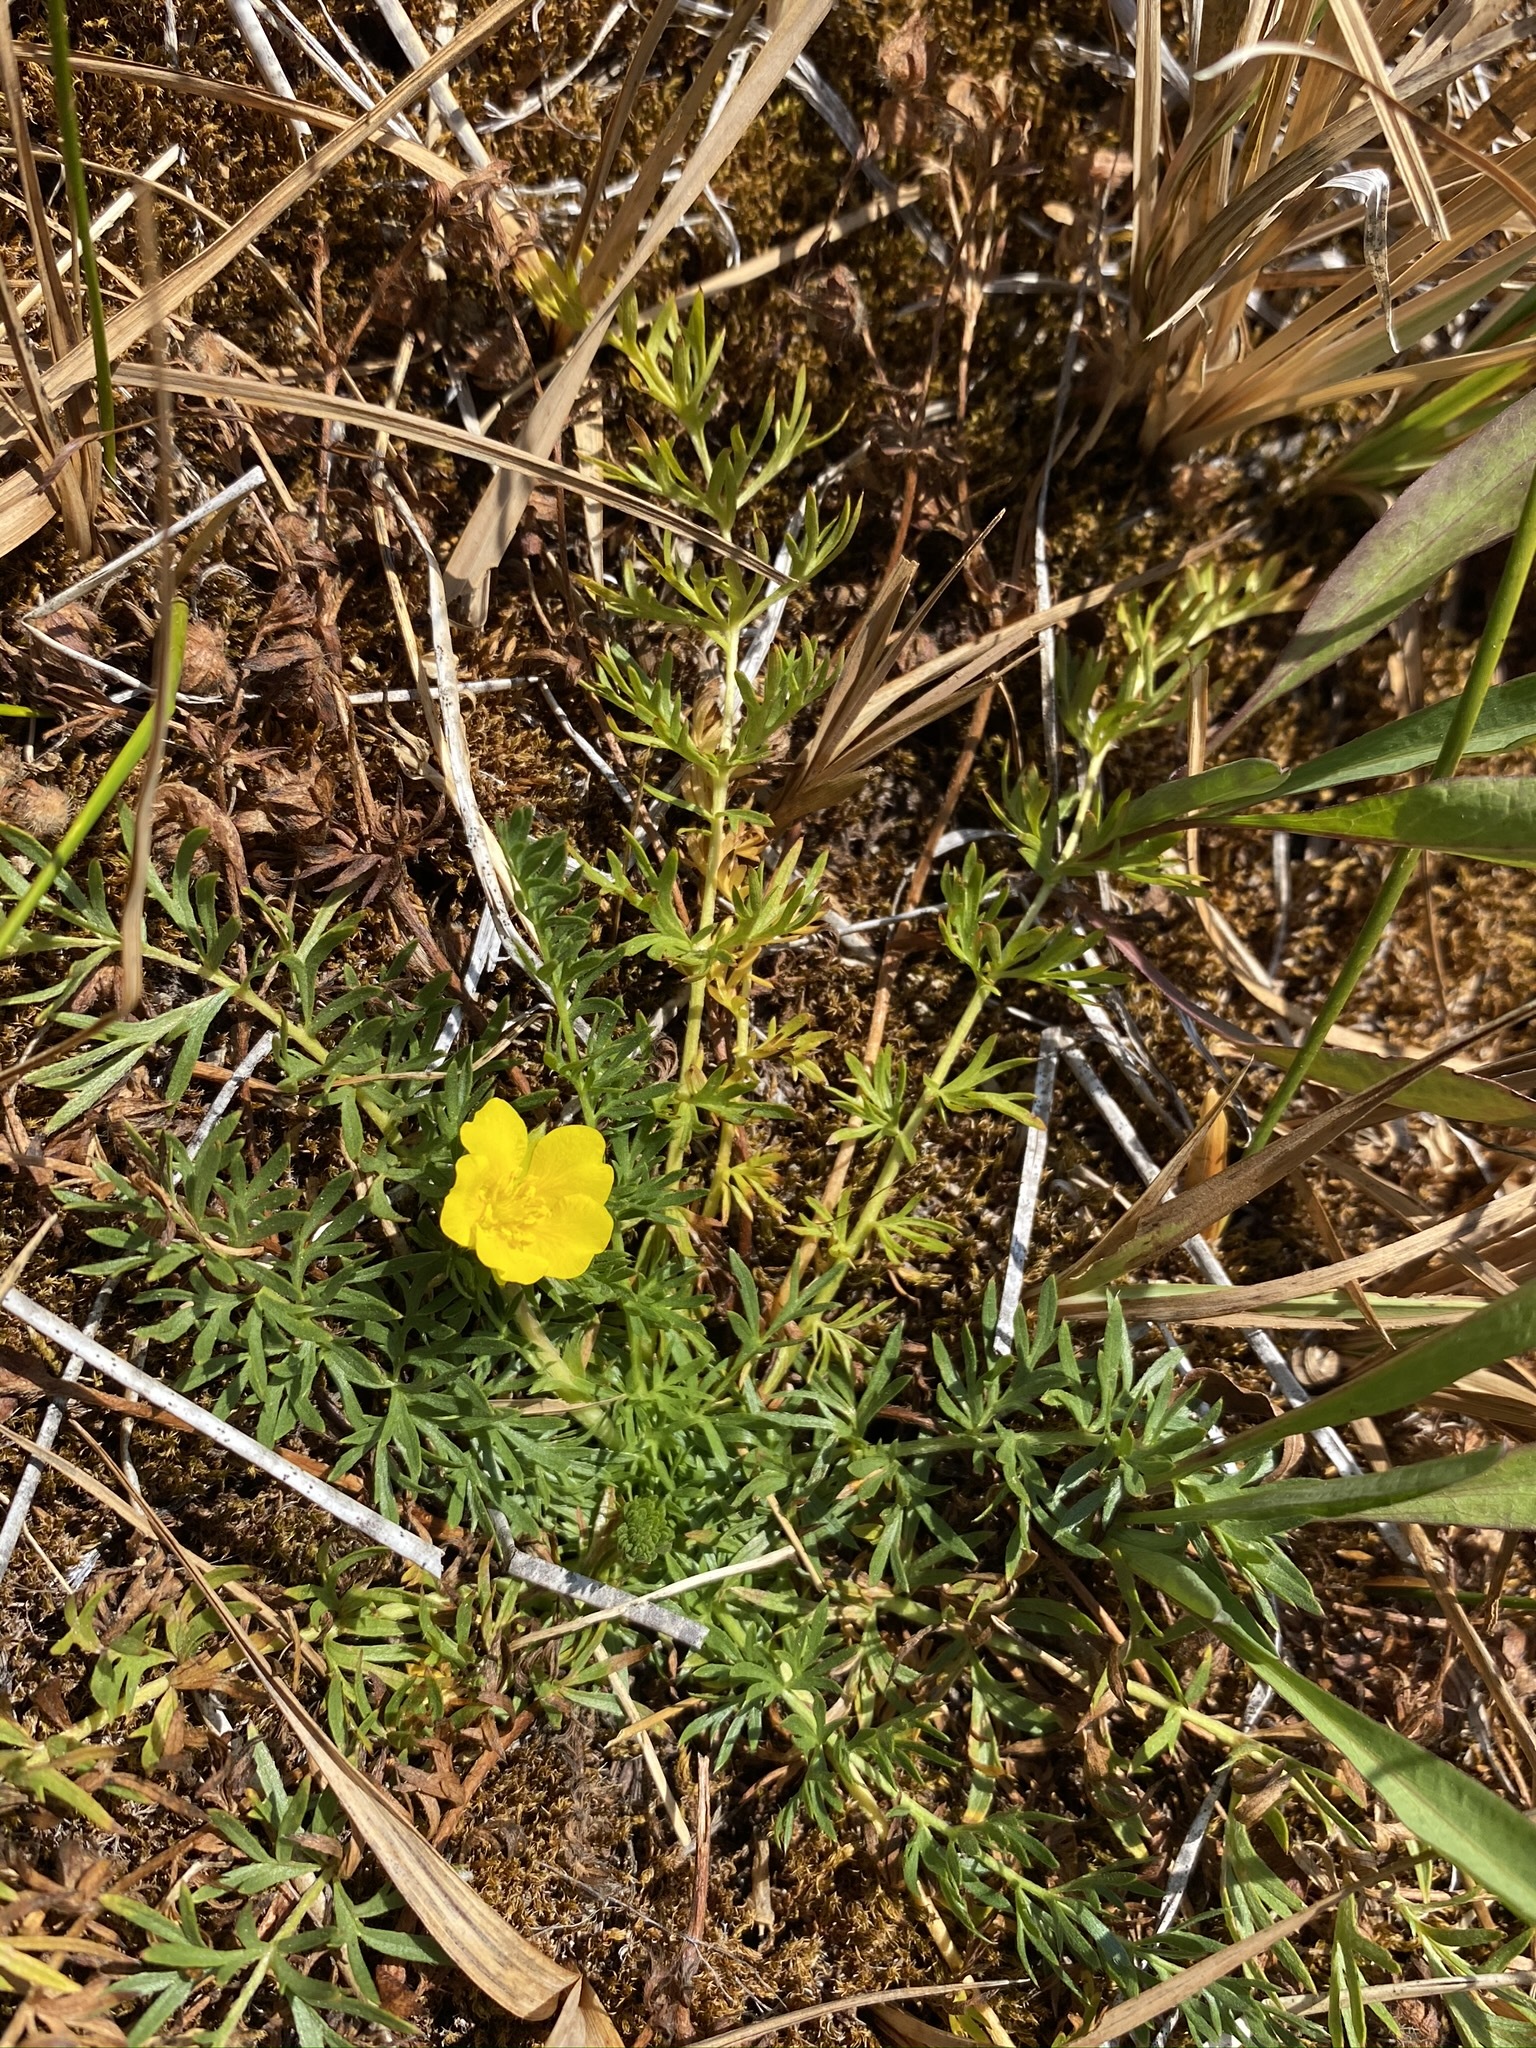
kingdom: Plantae
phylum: Tracheophyta
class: Magnoliopsida
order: Rosales
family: Rosaceae
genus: Potentilla
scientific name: Potentilla millefolia
